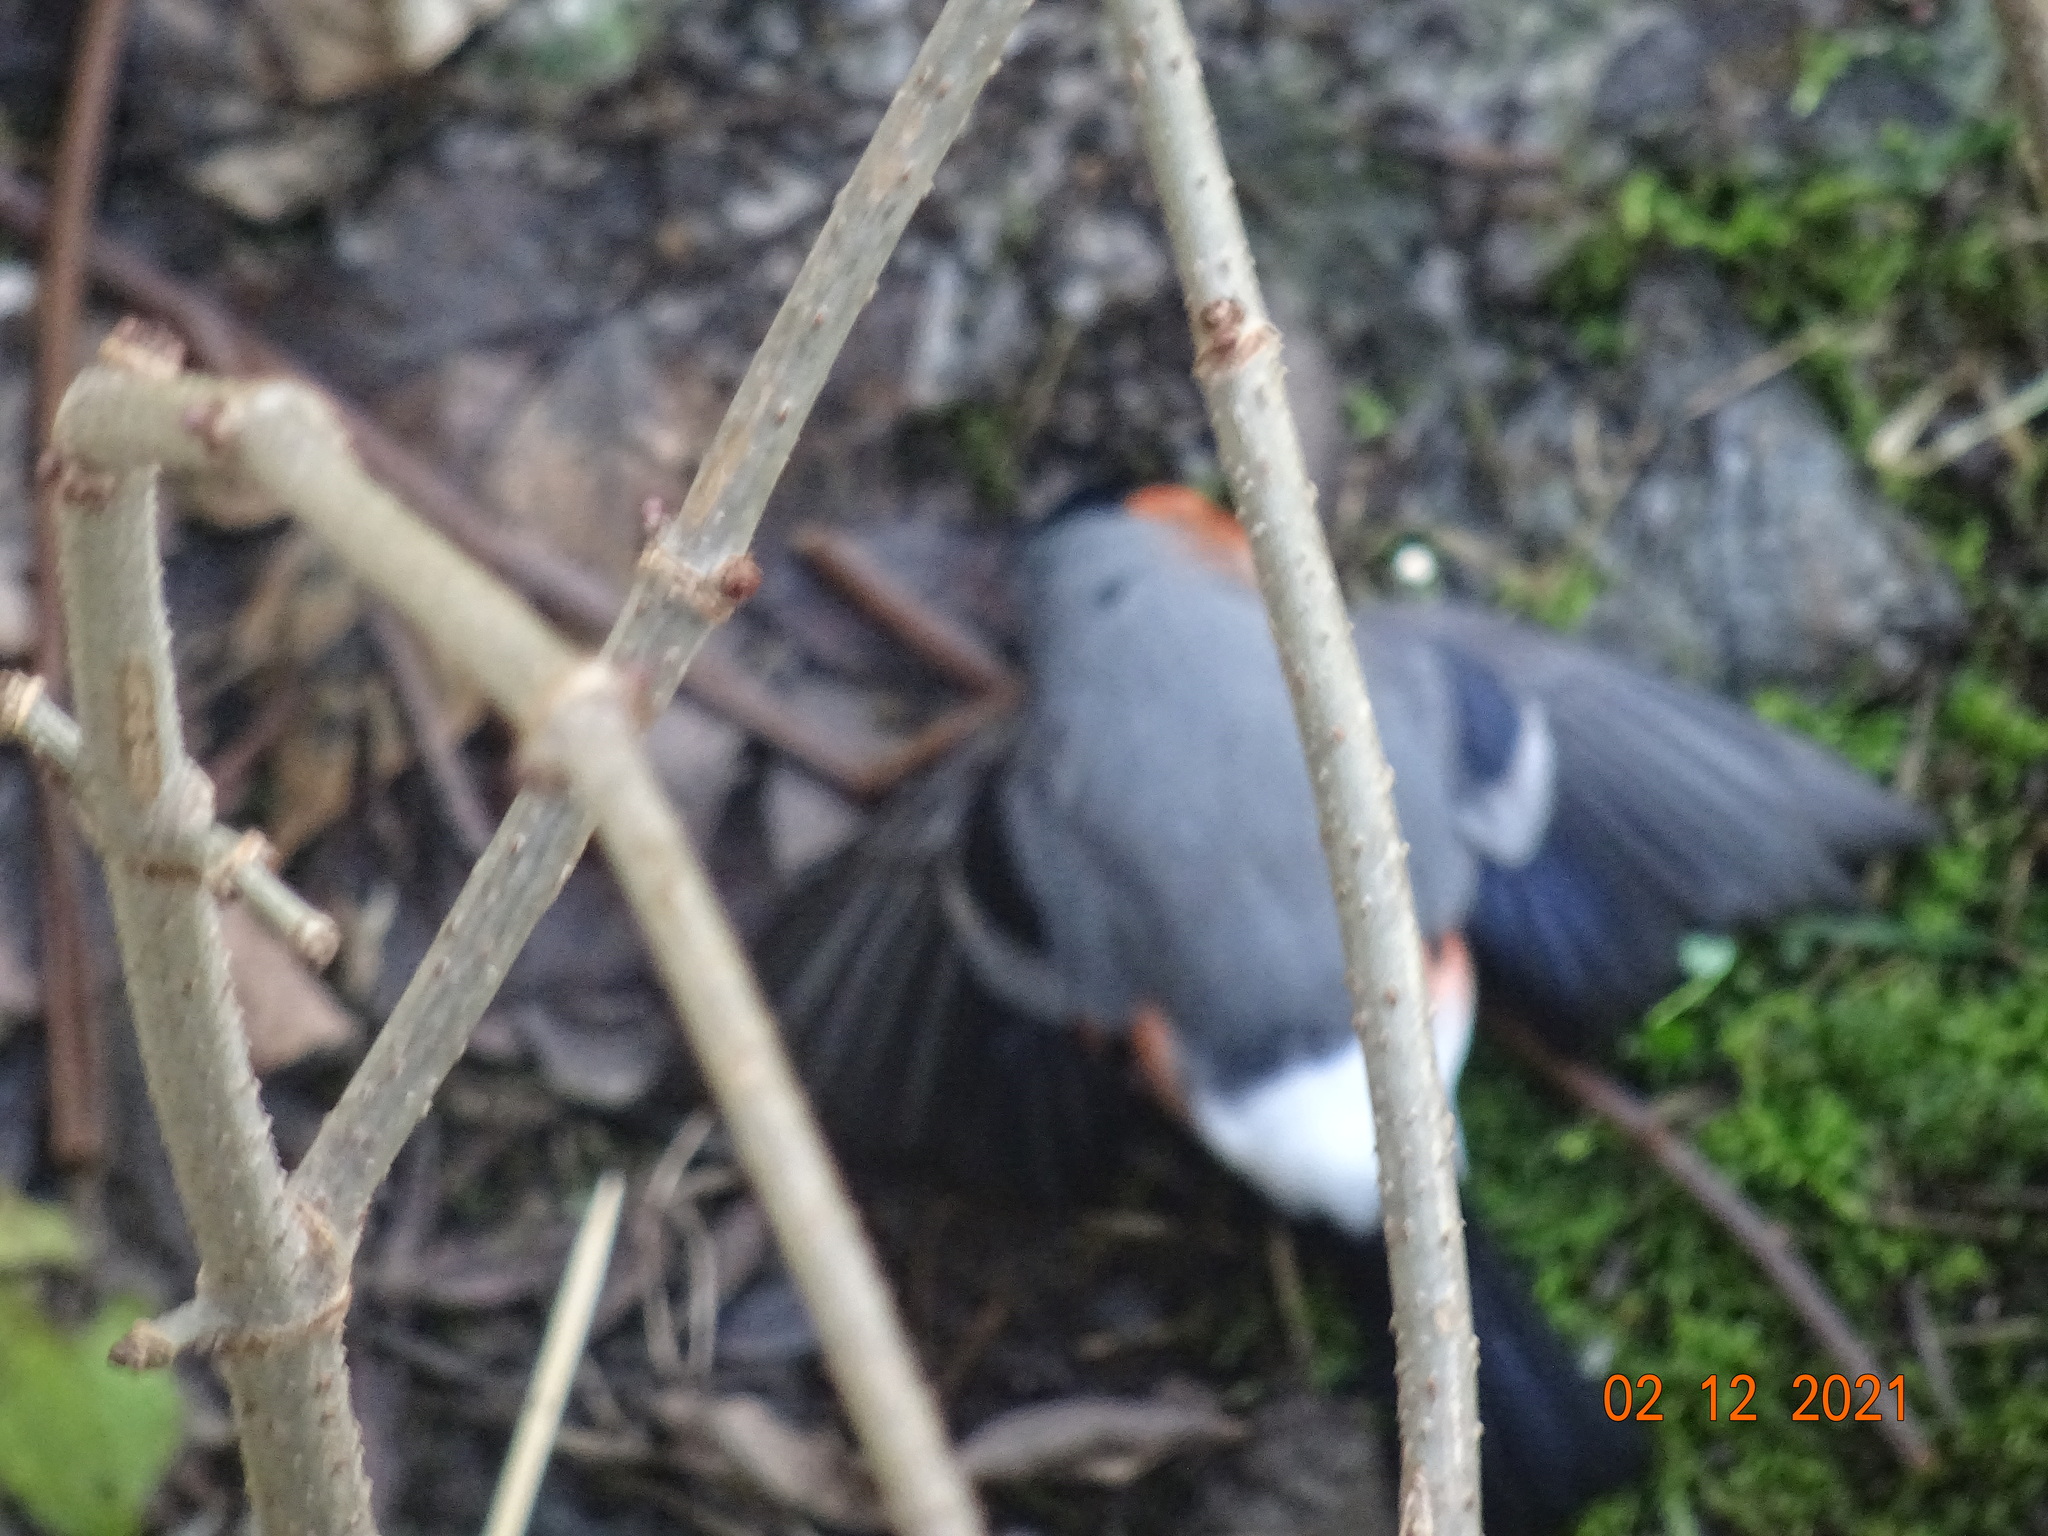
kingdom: Animalia
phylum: Chordata
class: Aves
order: Passeriformes
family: Fringillidae
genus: Pyrrhula
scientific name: Pyrrhula pyrrhula
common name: Eurasian bullfinch
